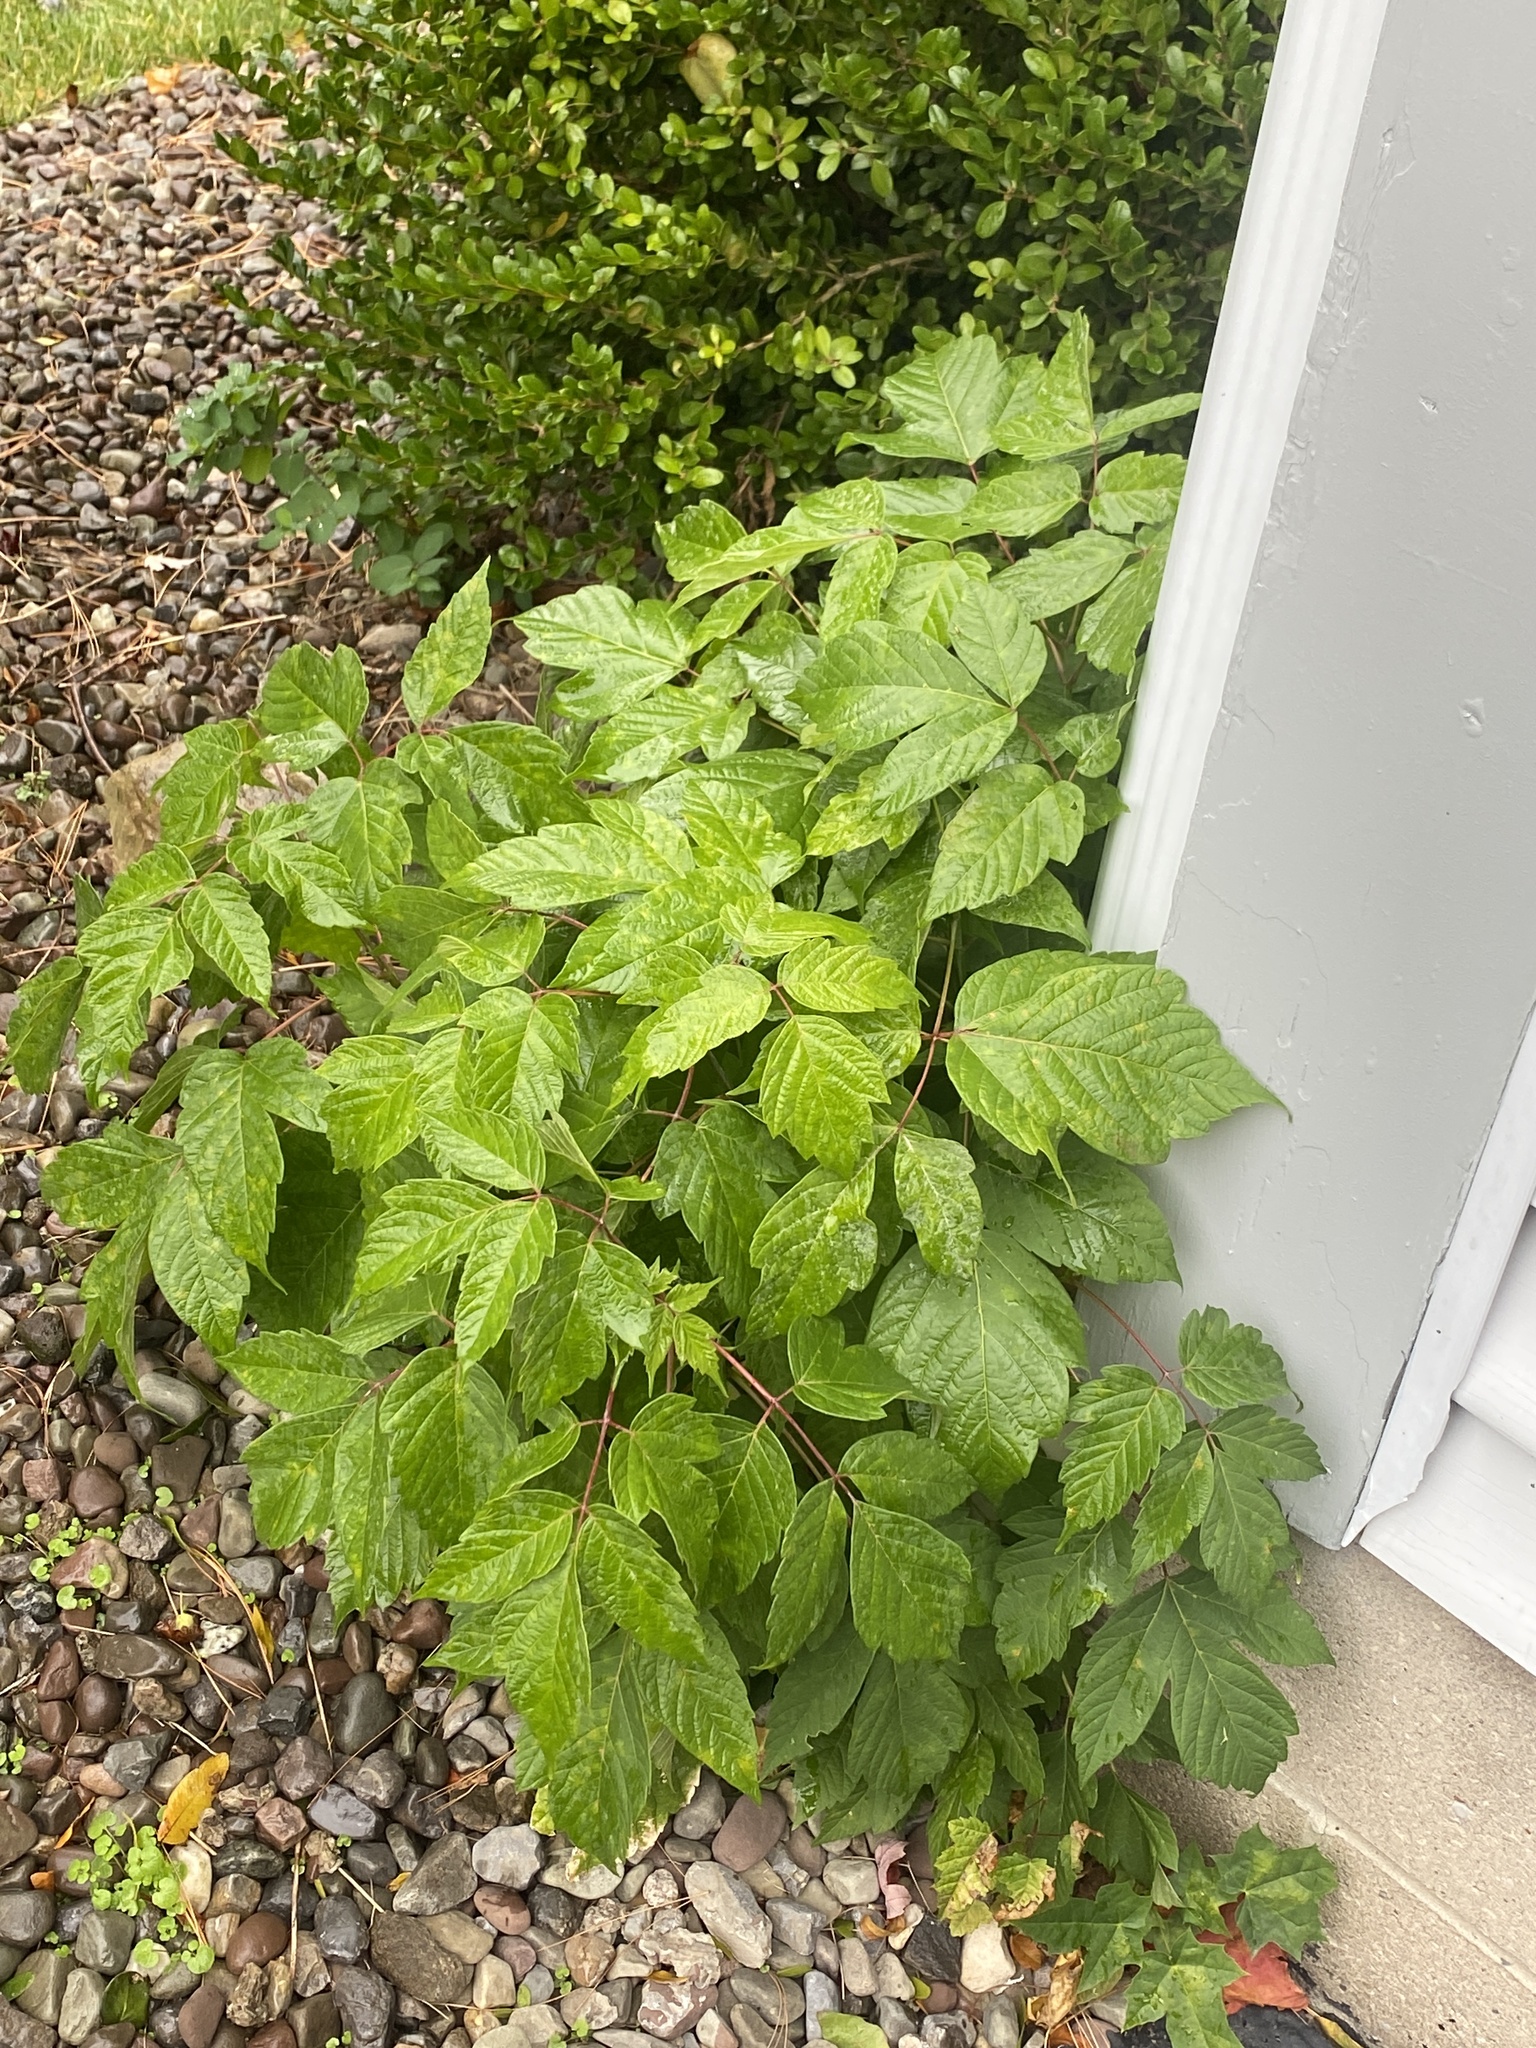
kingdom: Plantae
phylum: Tracheophyta
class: Magnoliopsida
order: Sapindales
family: Sapindaceae
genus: Acer
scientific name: Acer negundo
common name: Ashleaf maple
